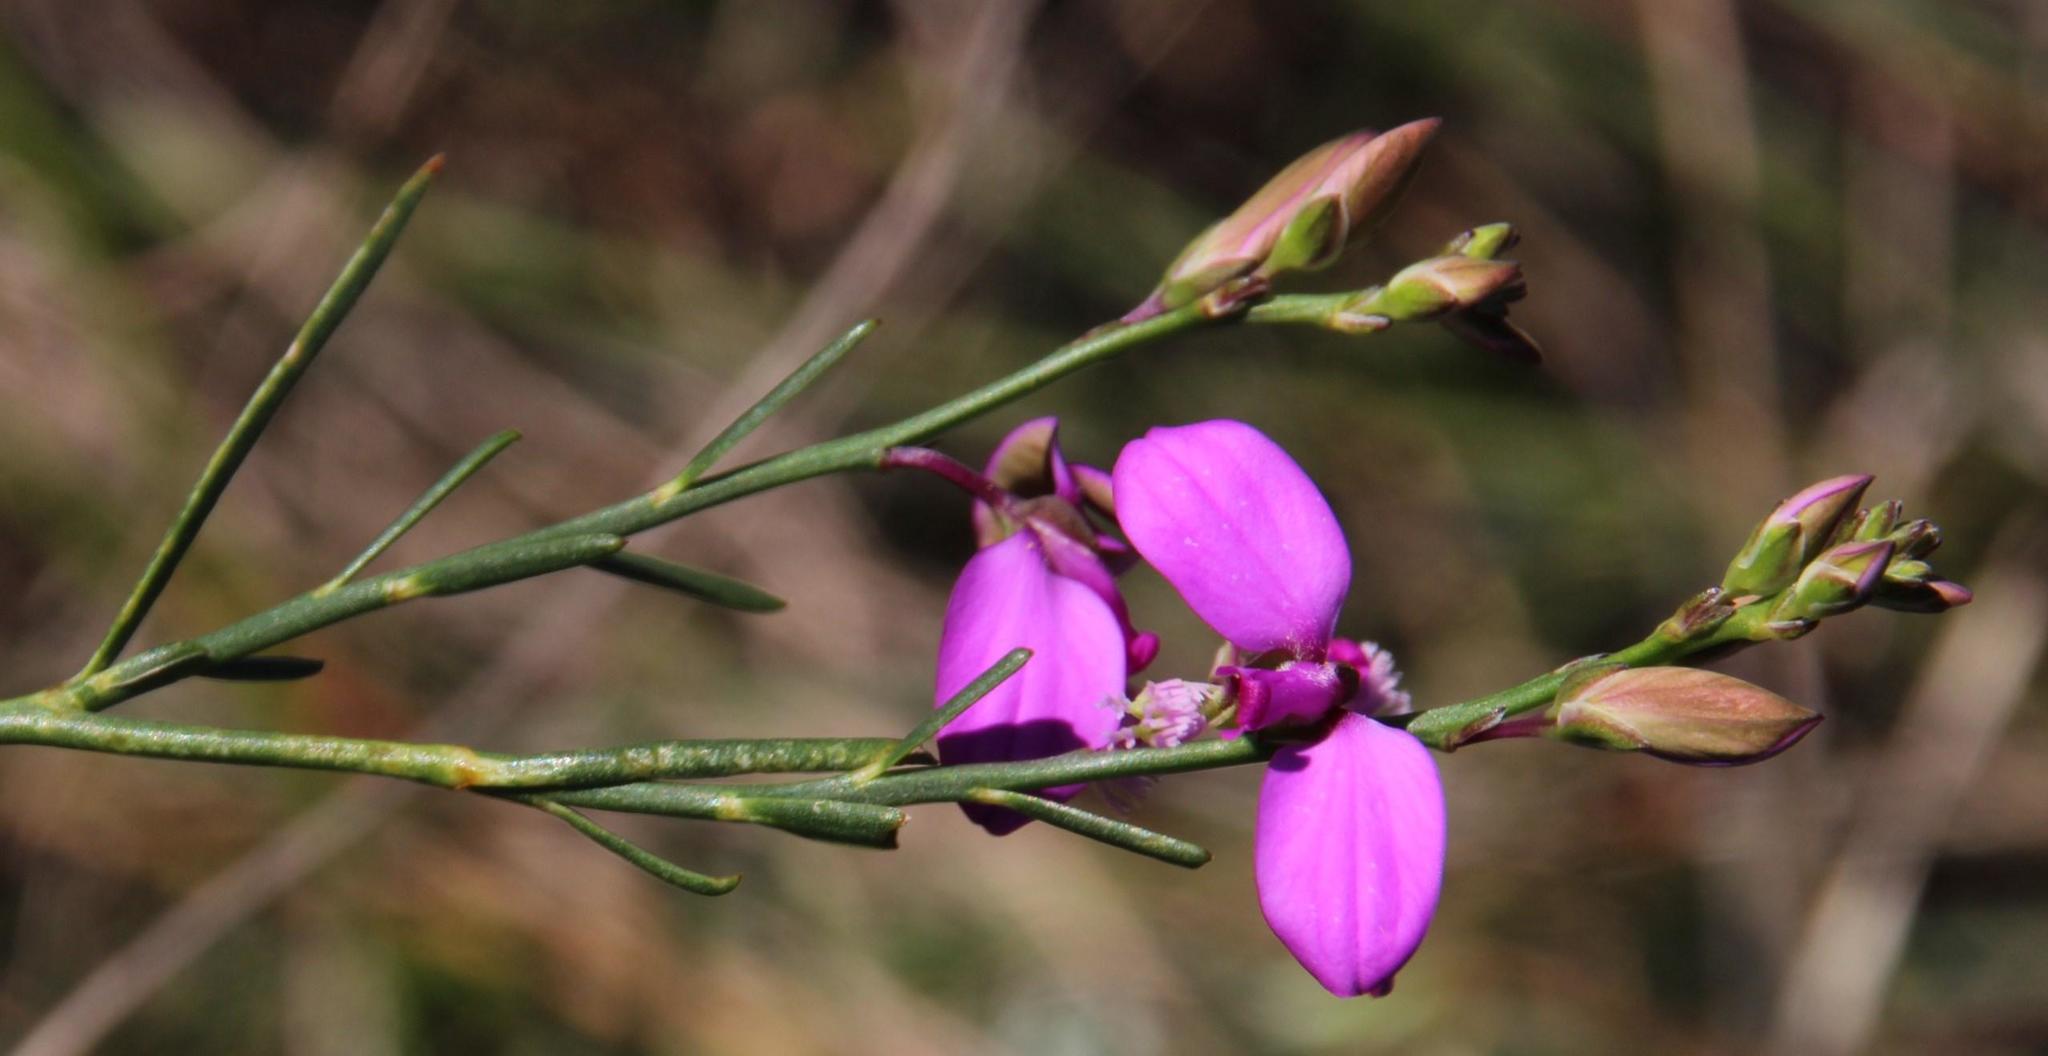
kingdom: Plantae
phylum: Tracheophyta
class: Magnoliopsida
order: Fabales
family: Polygalaceae
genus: Polygala
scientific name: Polygala garcini
